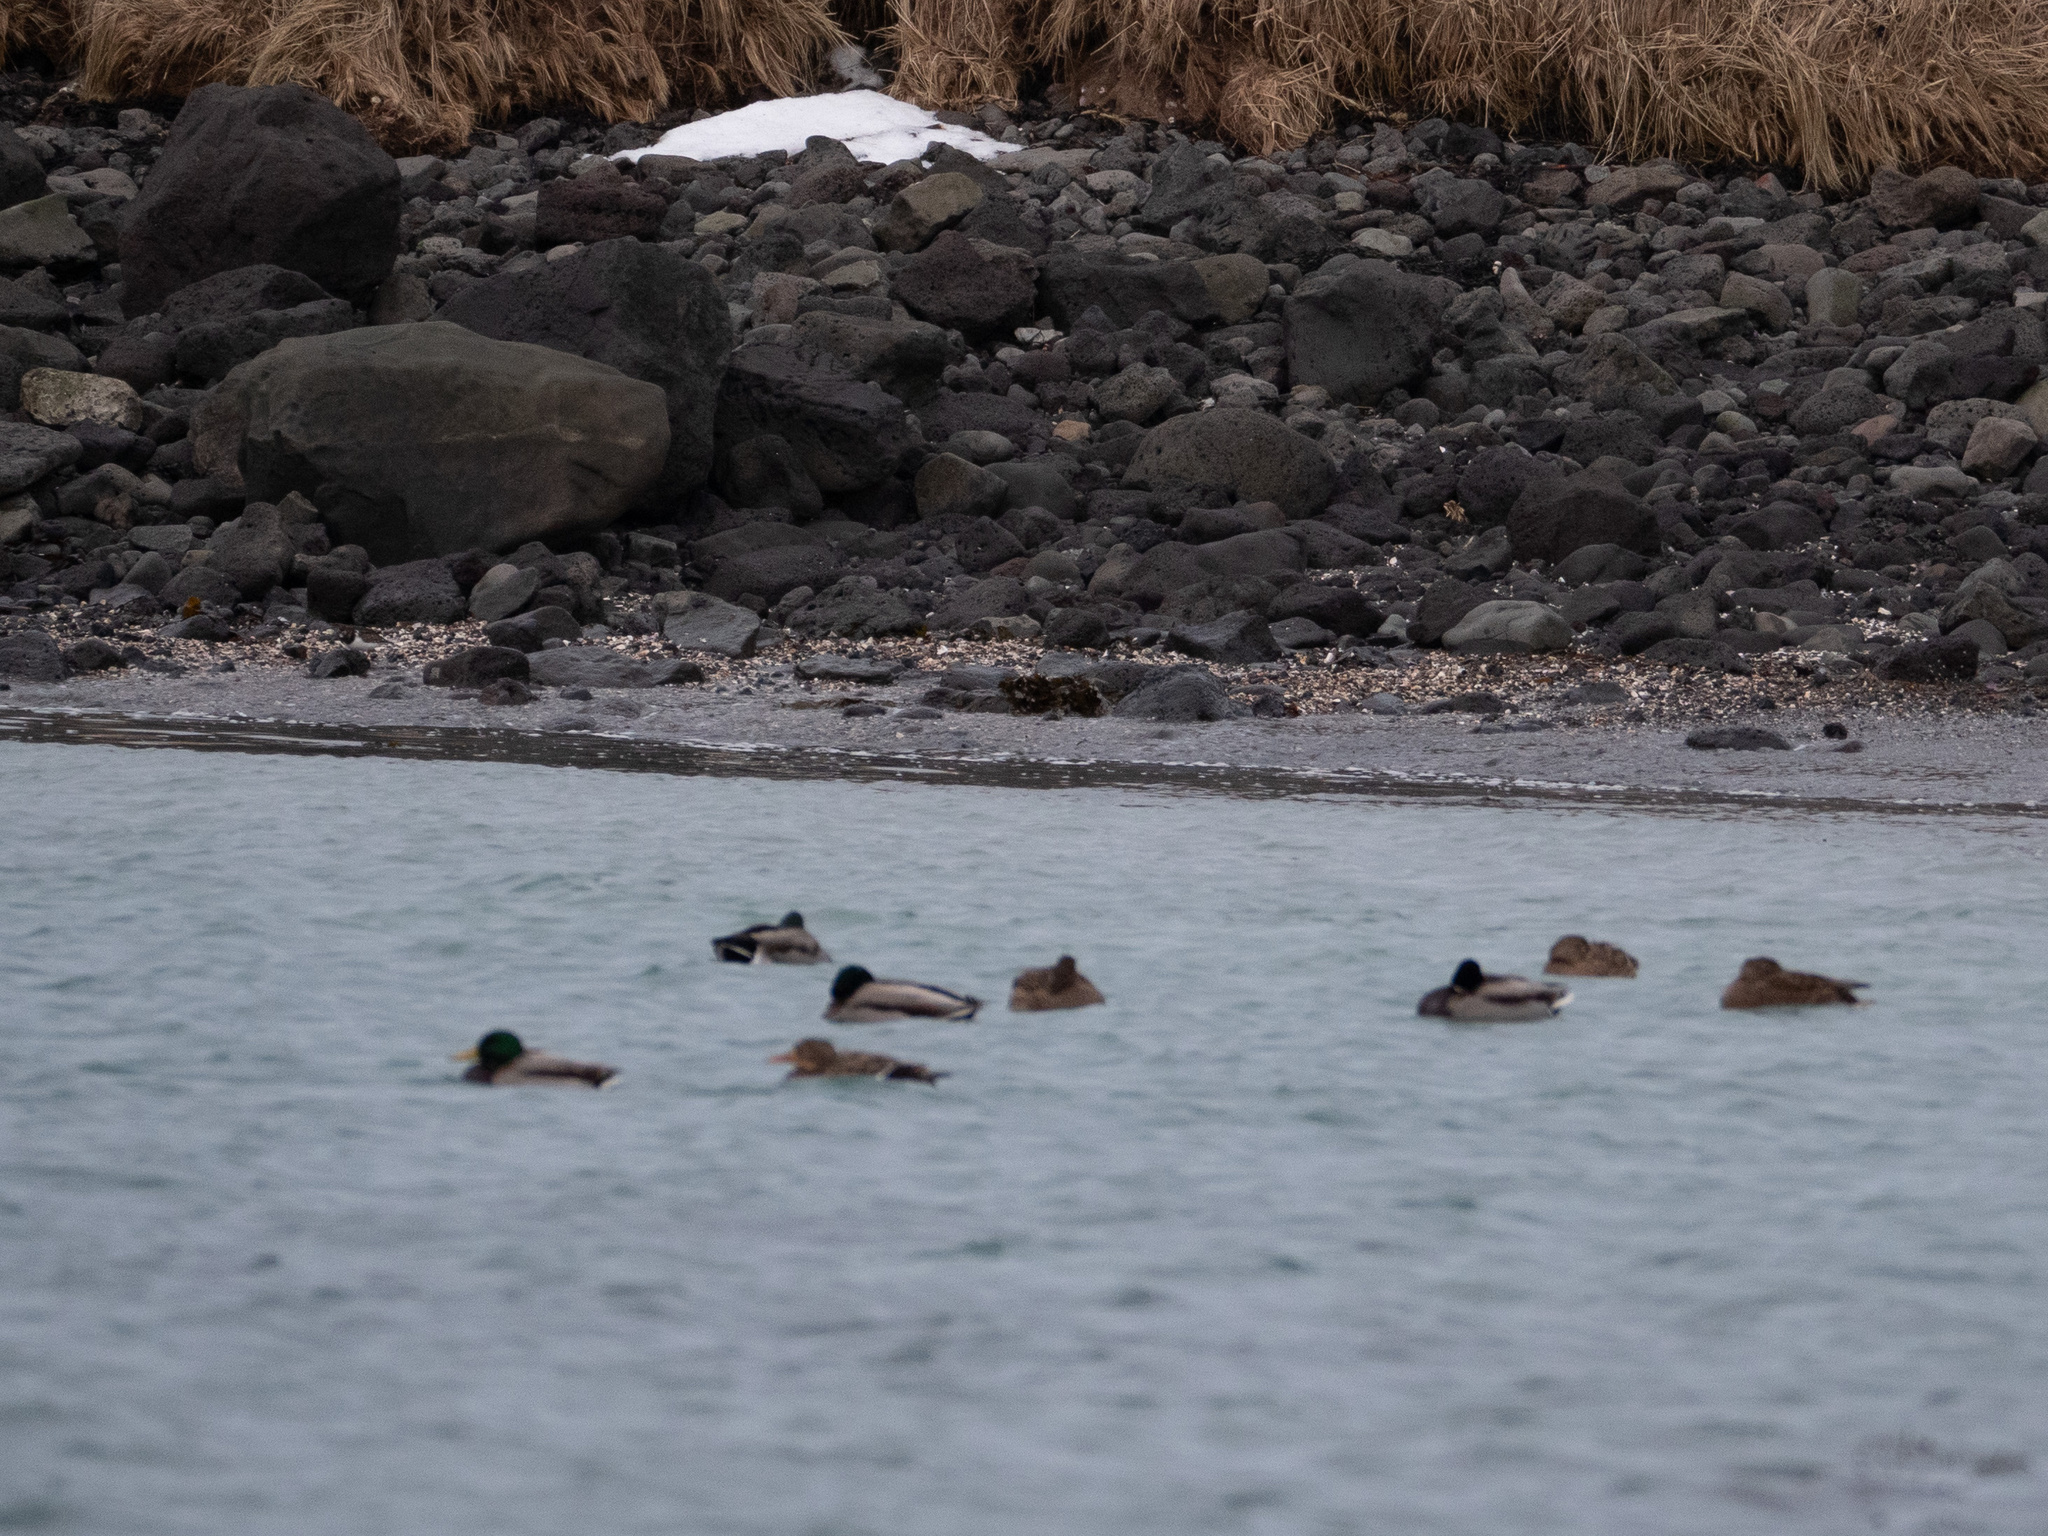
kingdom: Animalia
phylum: Chordata
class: Aves
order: Anseriformes
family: Anatidae
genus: Anas
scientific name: Anas platyrhynchos
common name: Mallard
